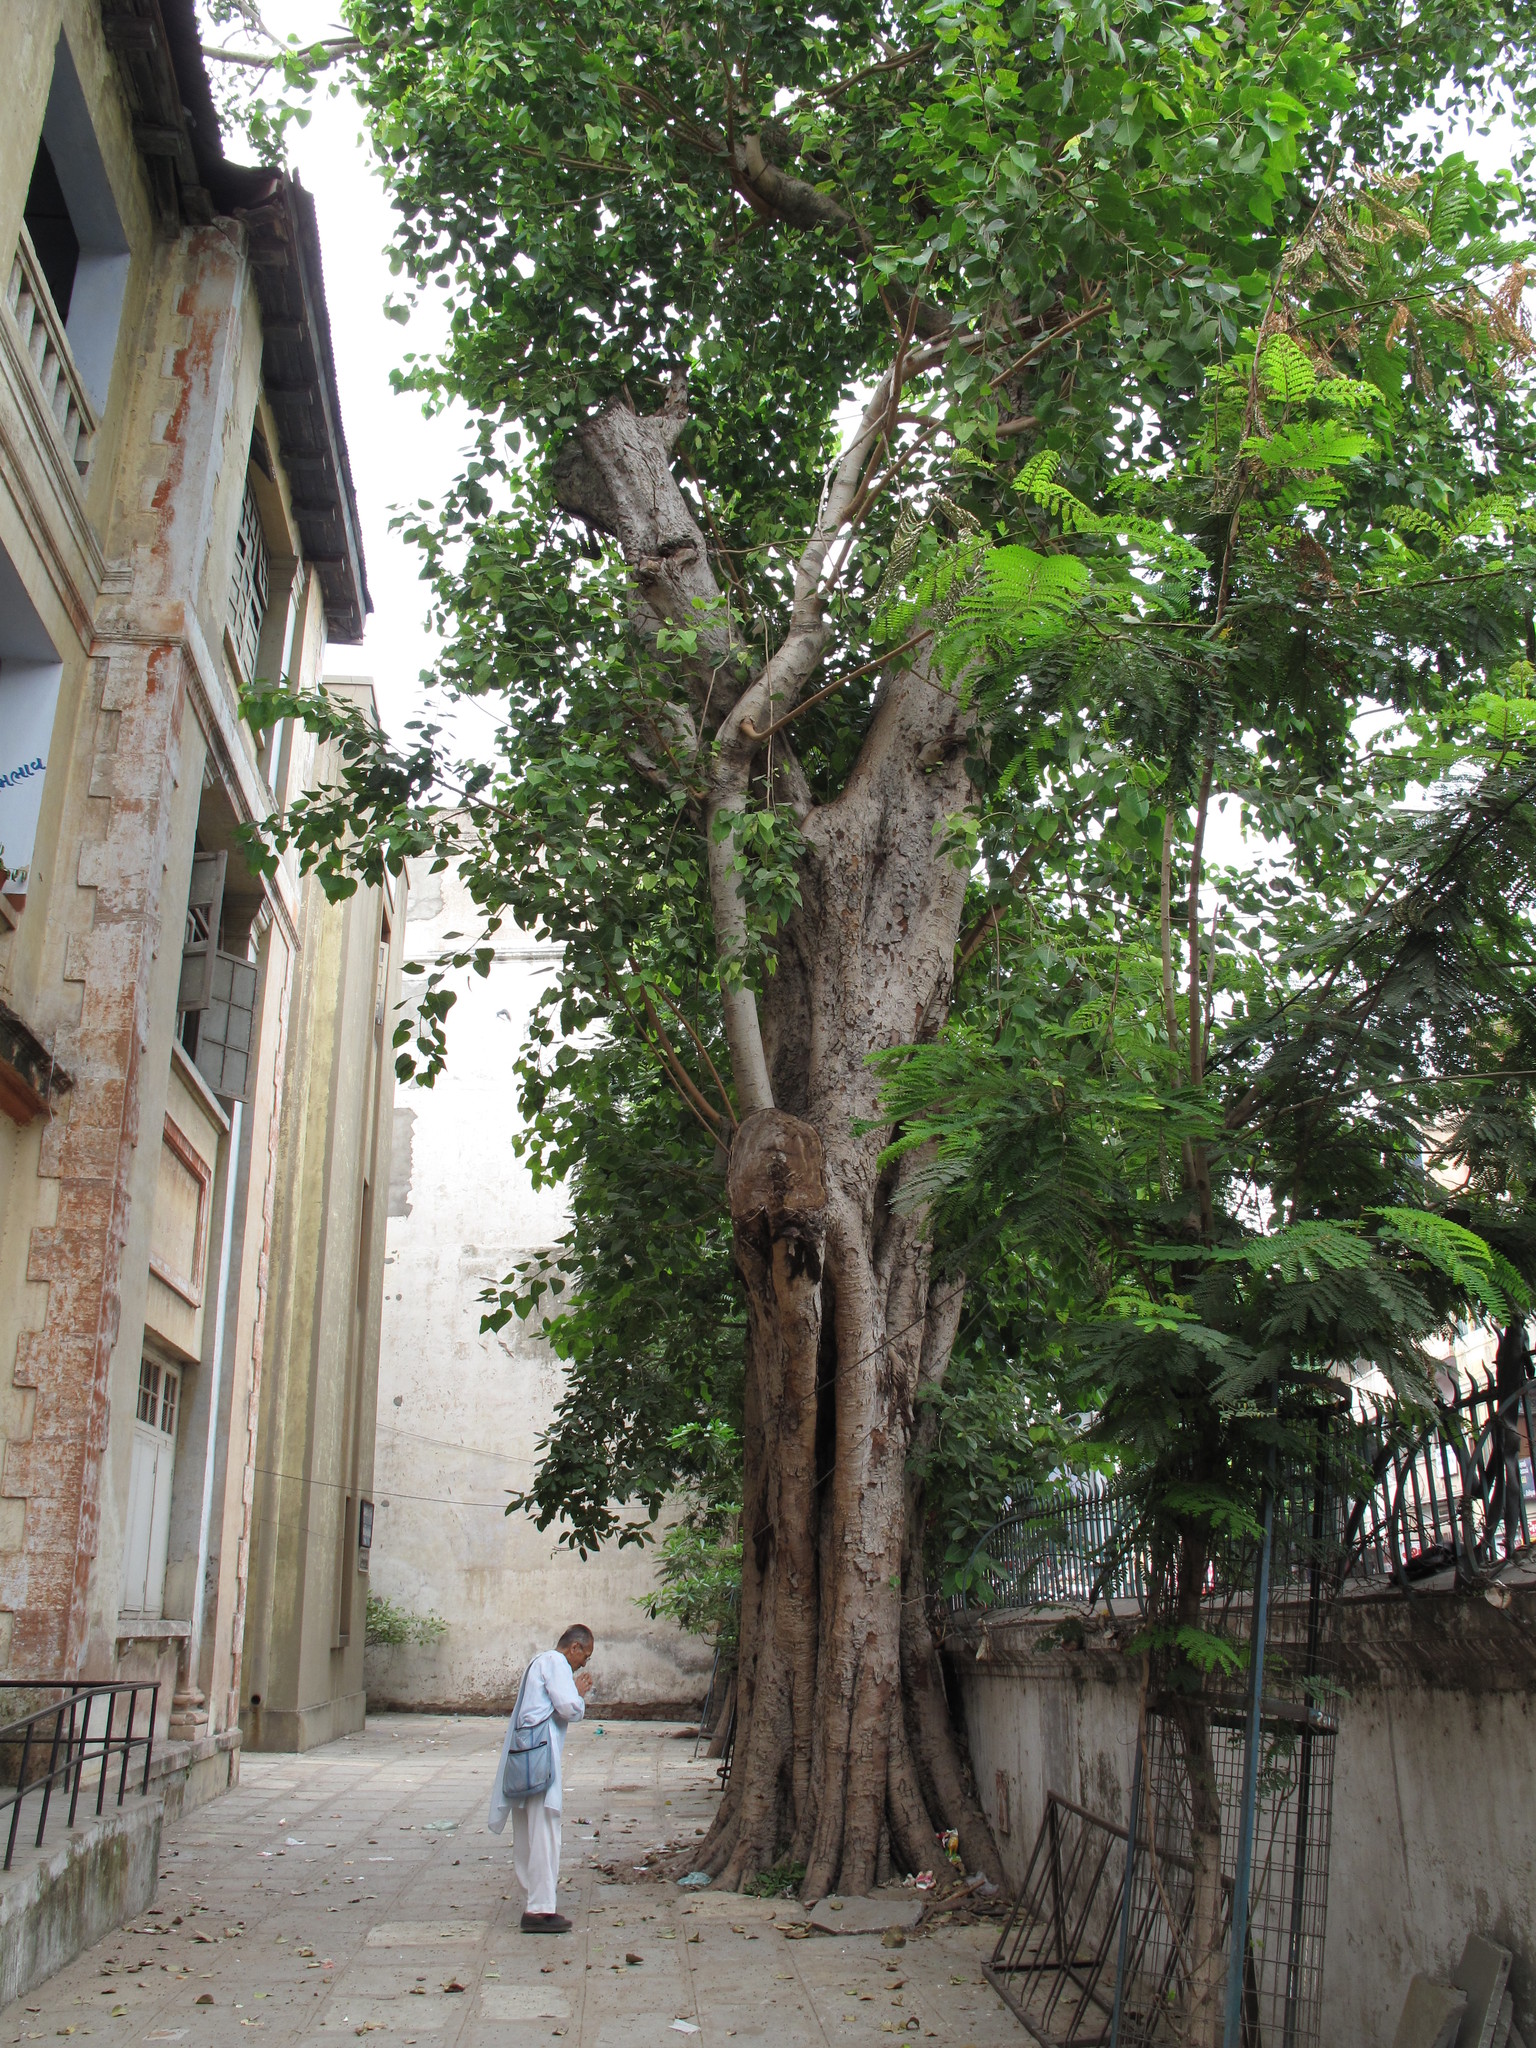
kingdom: Plantae
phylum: Tracheophyta
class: Magnoliopsida
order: Rosales
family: Moraceae
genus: Ficus
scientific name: Ficus religiosa
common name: Bodhi tree
